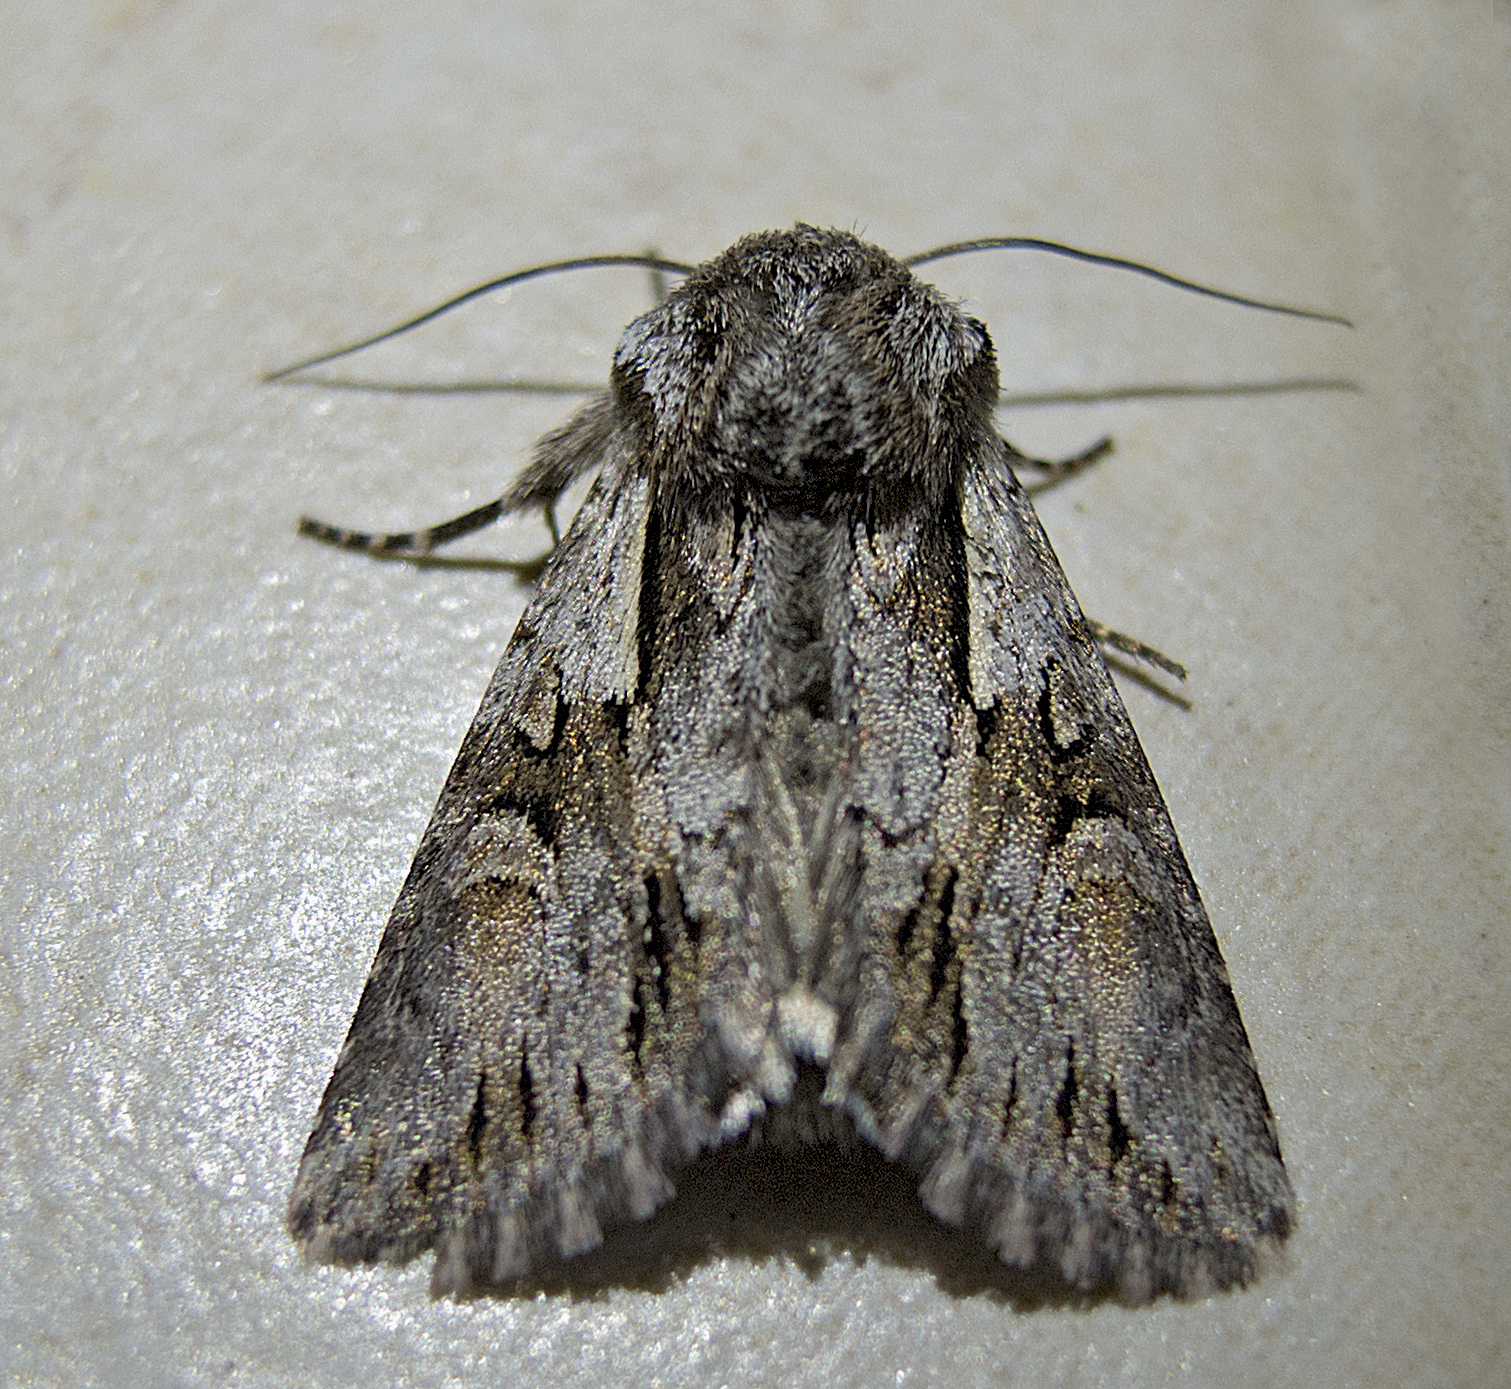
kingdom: Animalia
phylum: Arthropoda
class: Insecta
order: Lepidoptera
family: Noctuidae
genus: Chloantha
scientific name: Chloantha hyperici
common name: Pale-shouldered cloud
